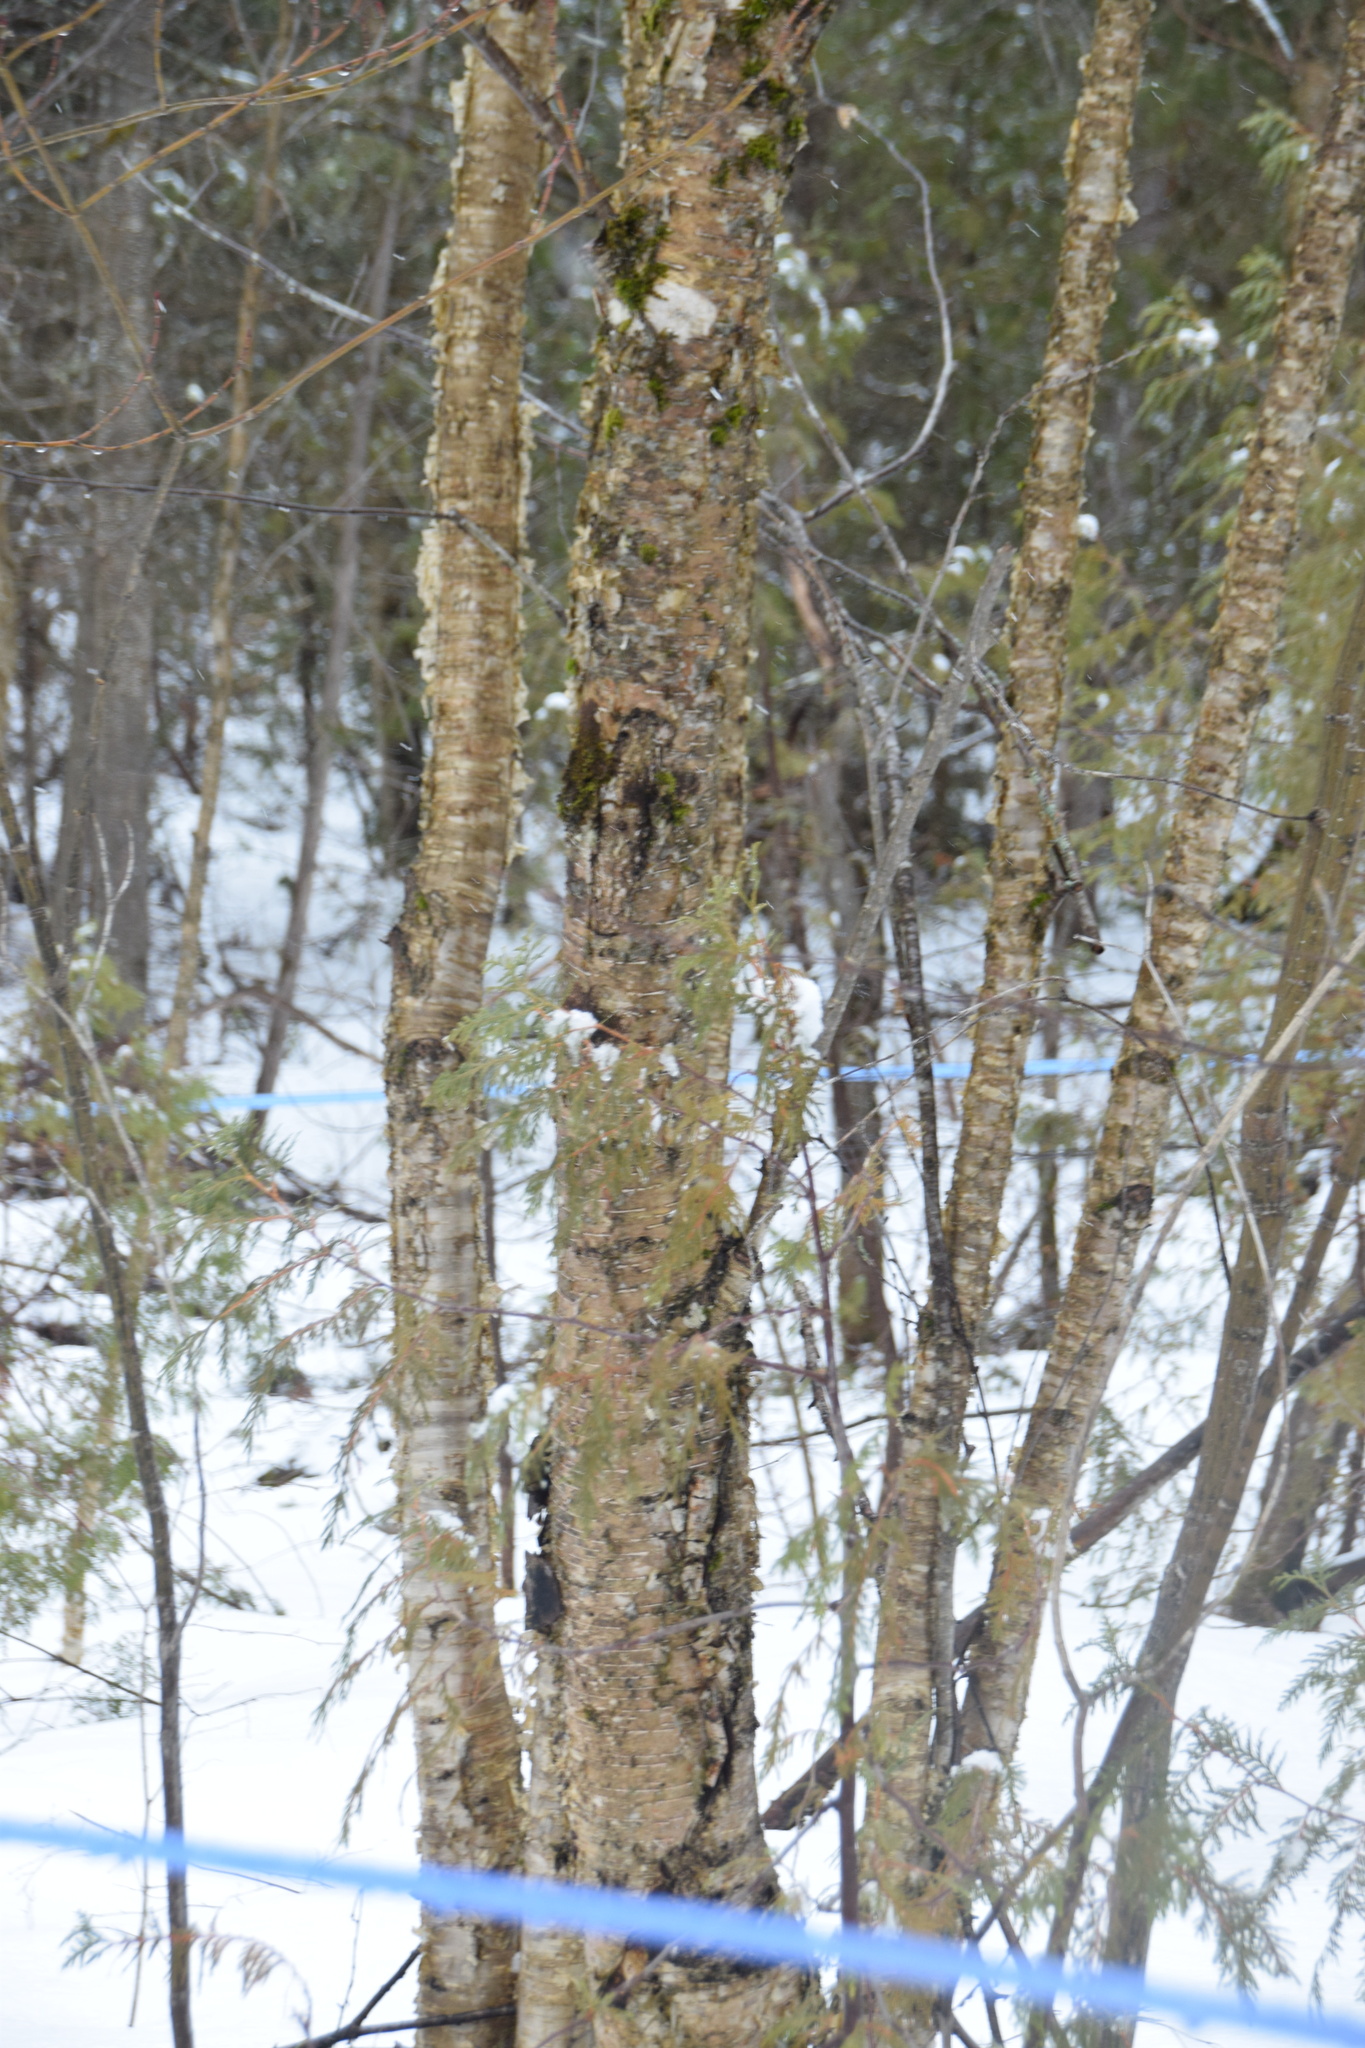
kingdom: Plantae
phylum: Tracheophyta
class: Magnoliopsida
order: Fagales
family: Betulaceae
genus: Betula
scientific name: Betula alleghaniensis
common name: Yellow birch
